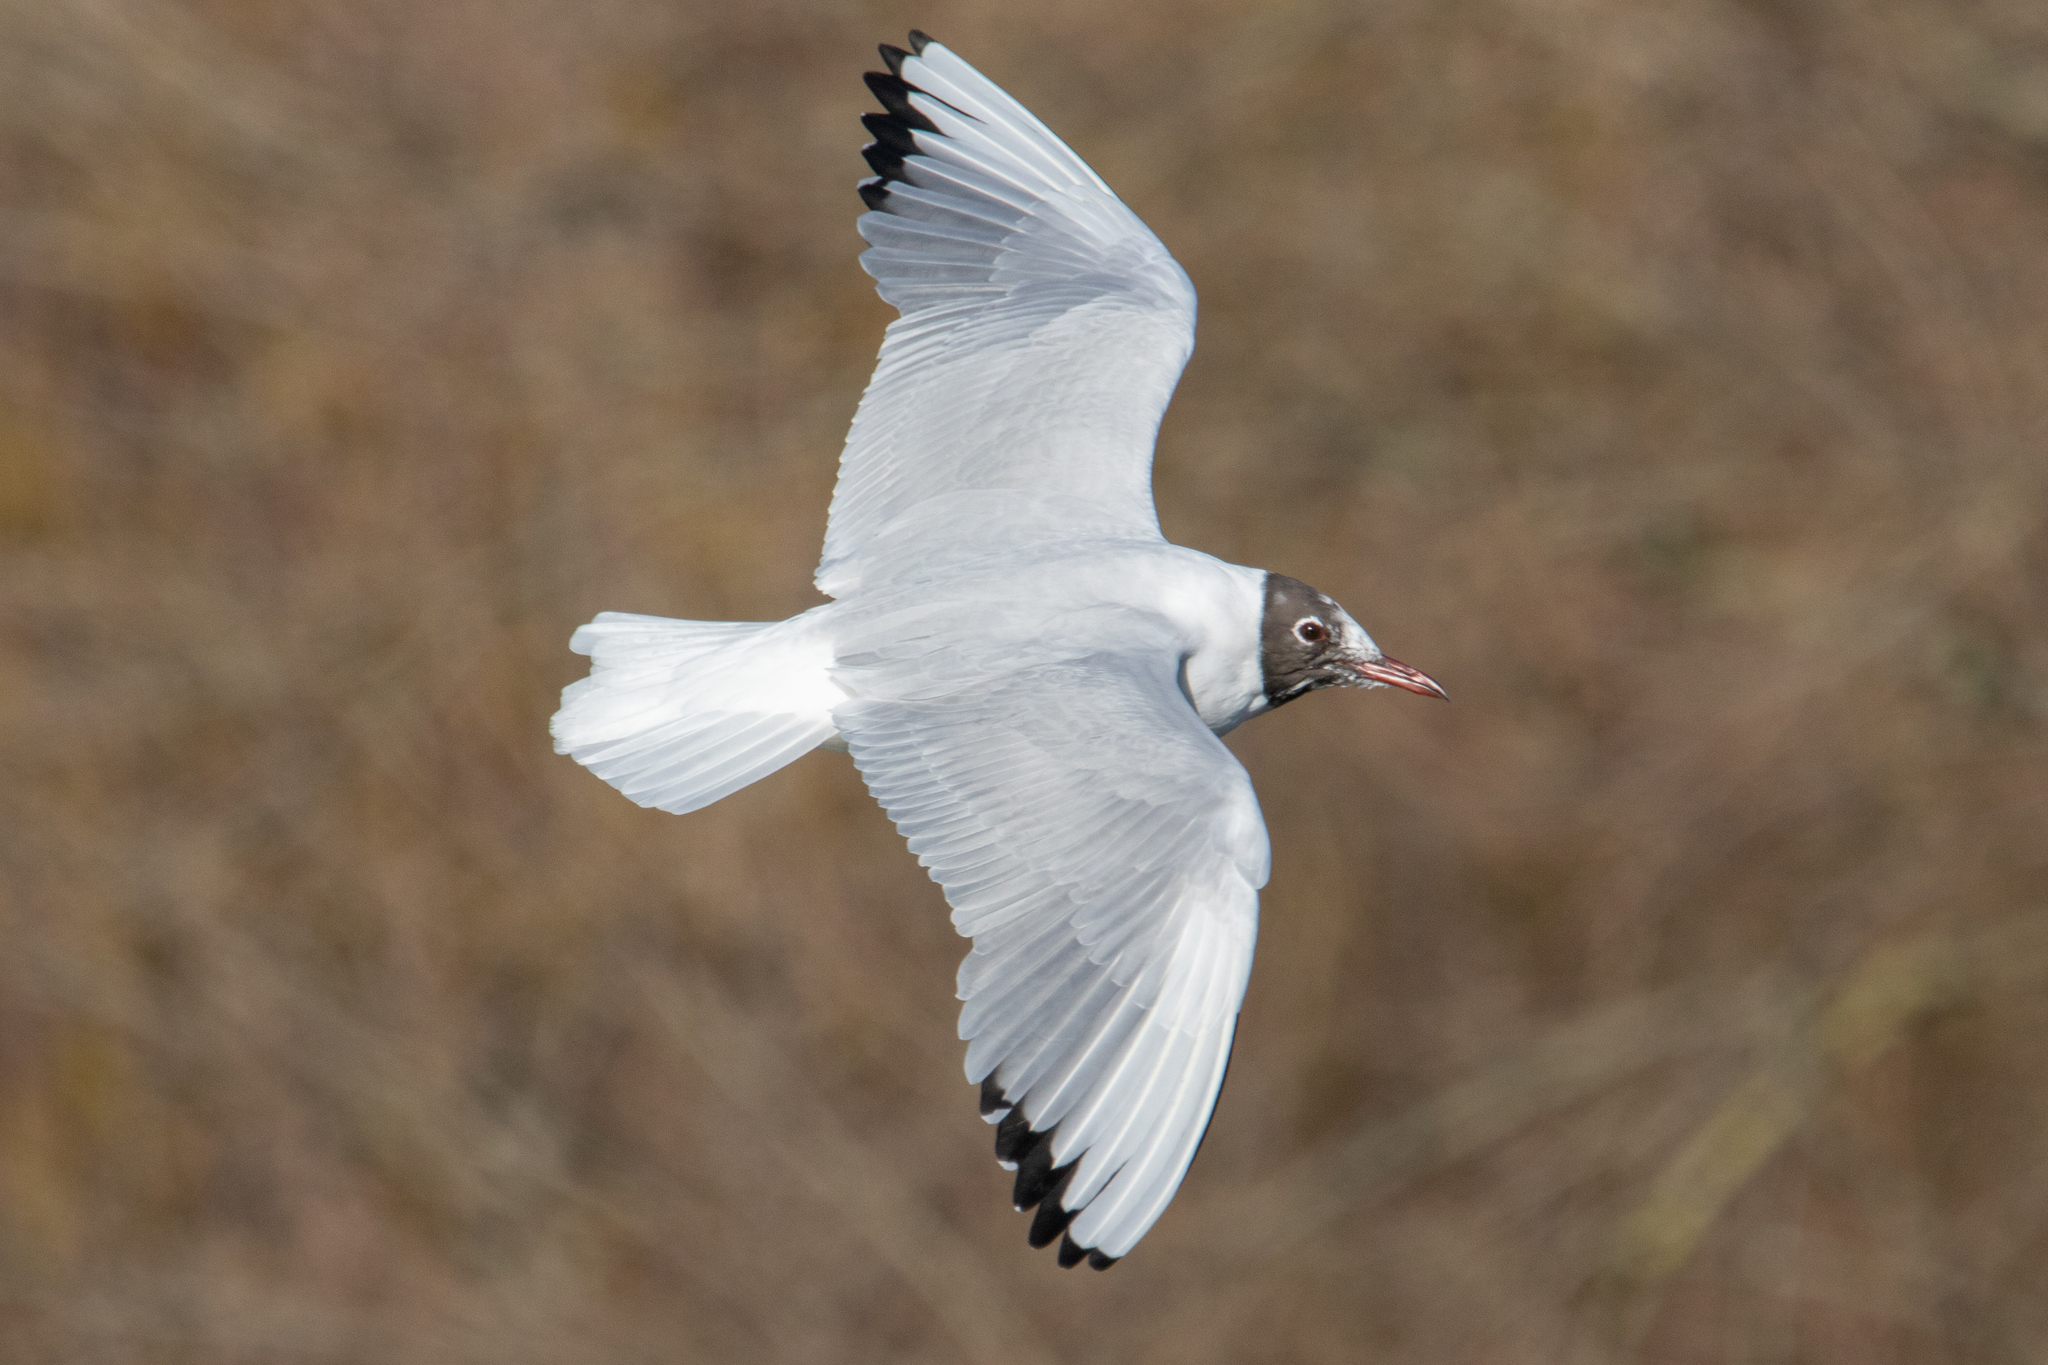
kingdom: Animalia
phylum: Chordata
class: Aves
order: Charadriiformes
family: Laridae
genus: Chroicocephalus
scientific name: Chroicocephalus ridibundus
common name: Black-headed gull
